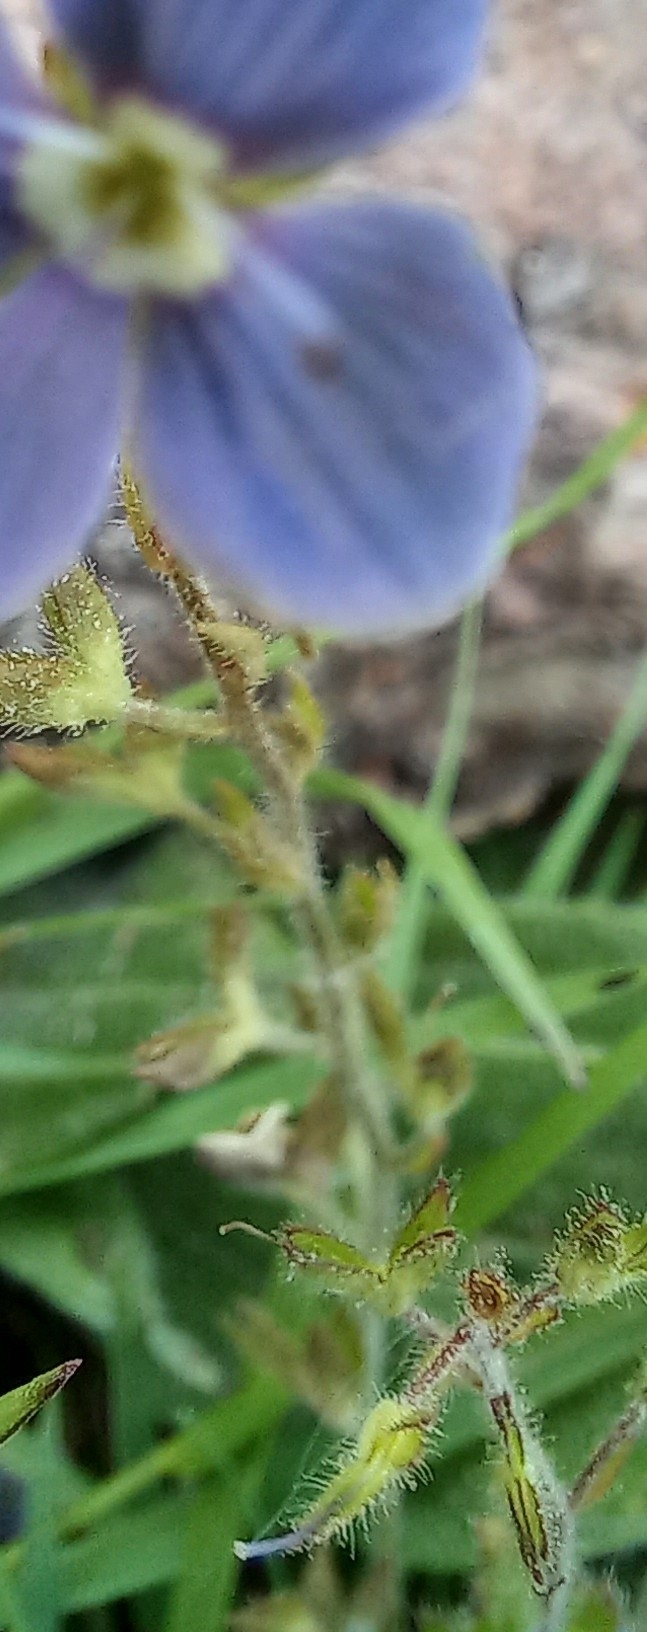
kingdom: Plantae
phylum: Tracheophyta
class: Magnoliopsida
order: Lamiales
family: Plantaginaceae
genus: Veronica
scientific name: Veronica chamaedrys
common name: Germander speedwell
